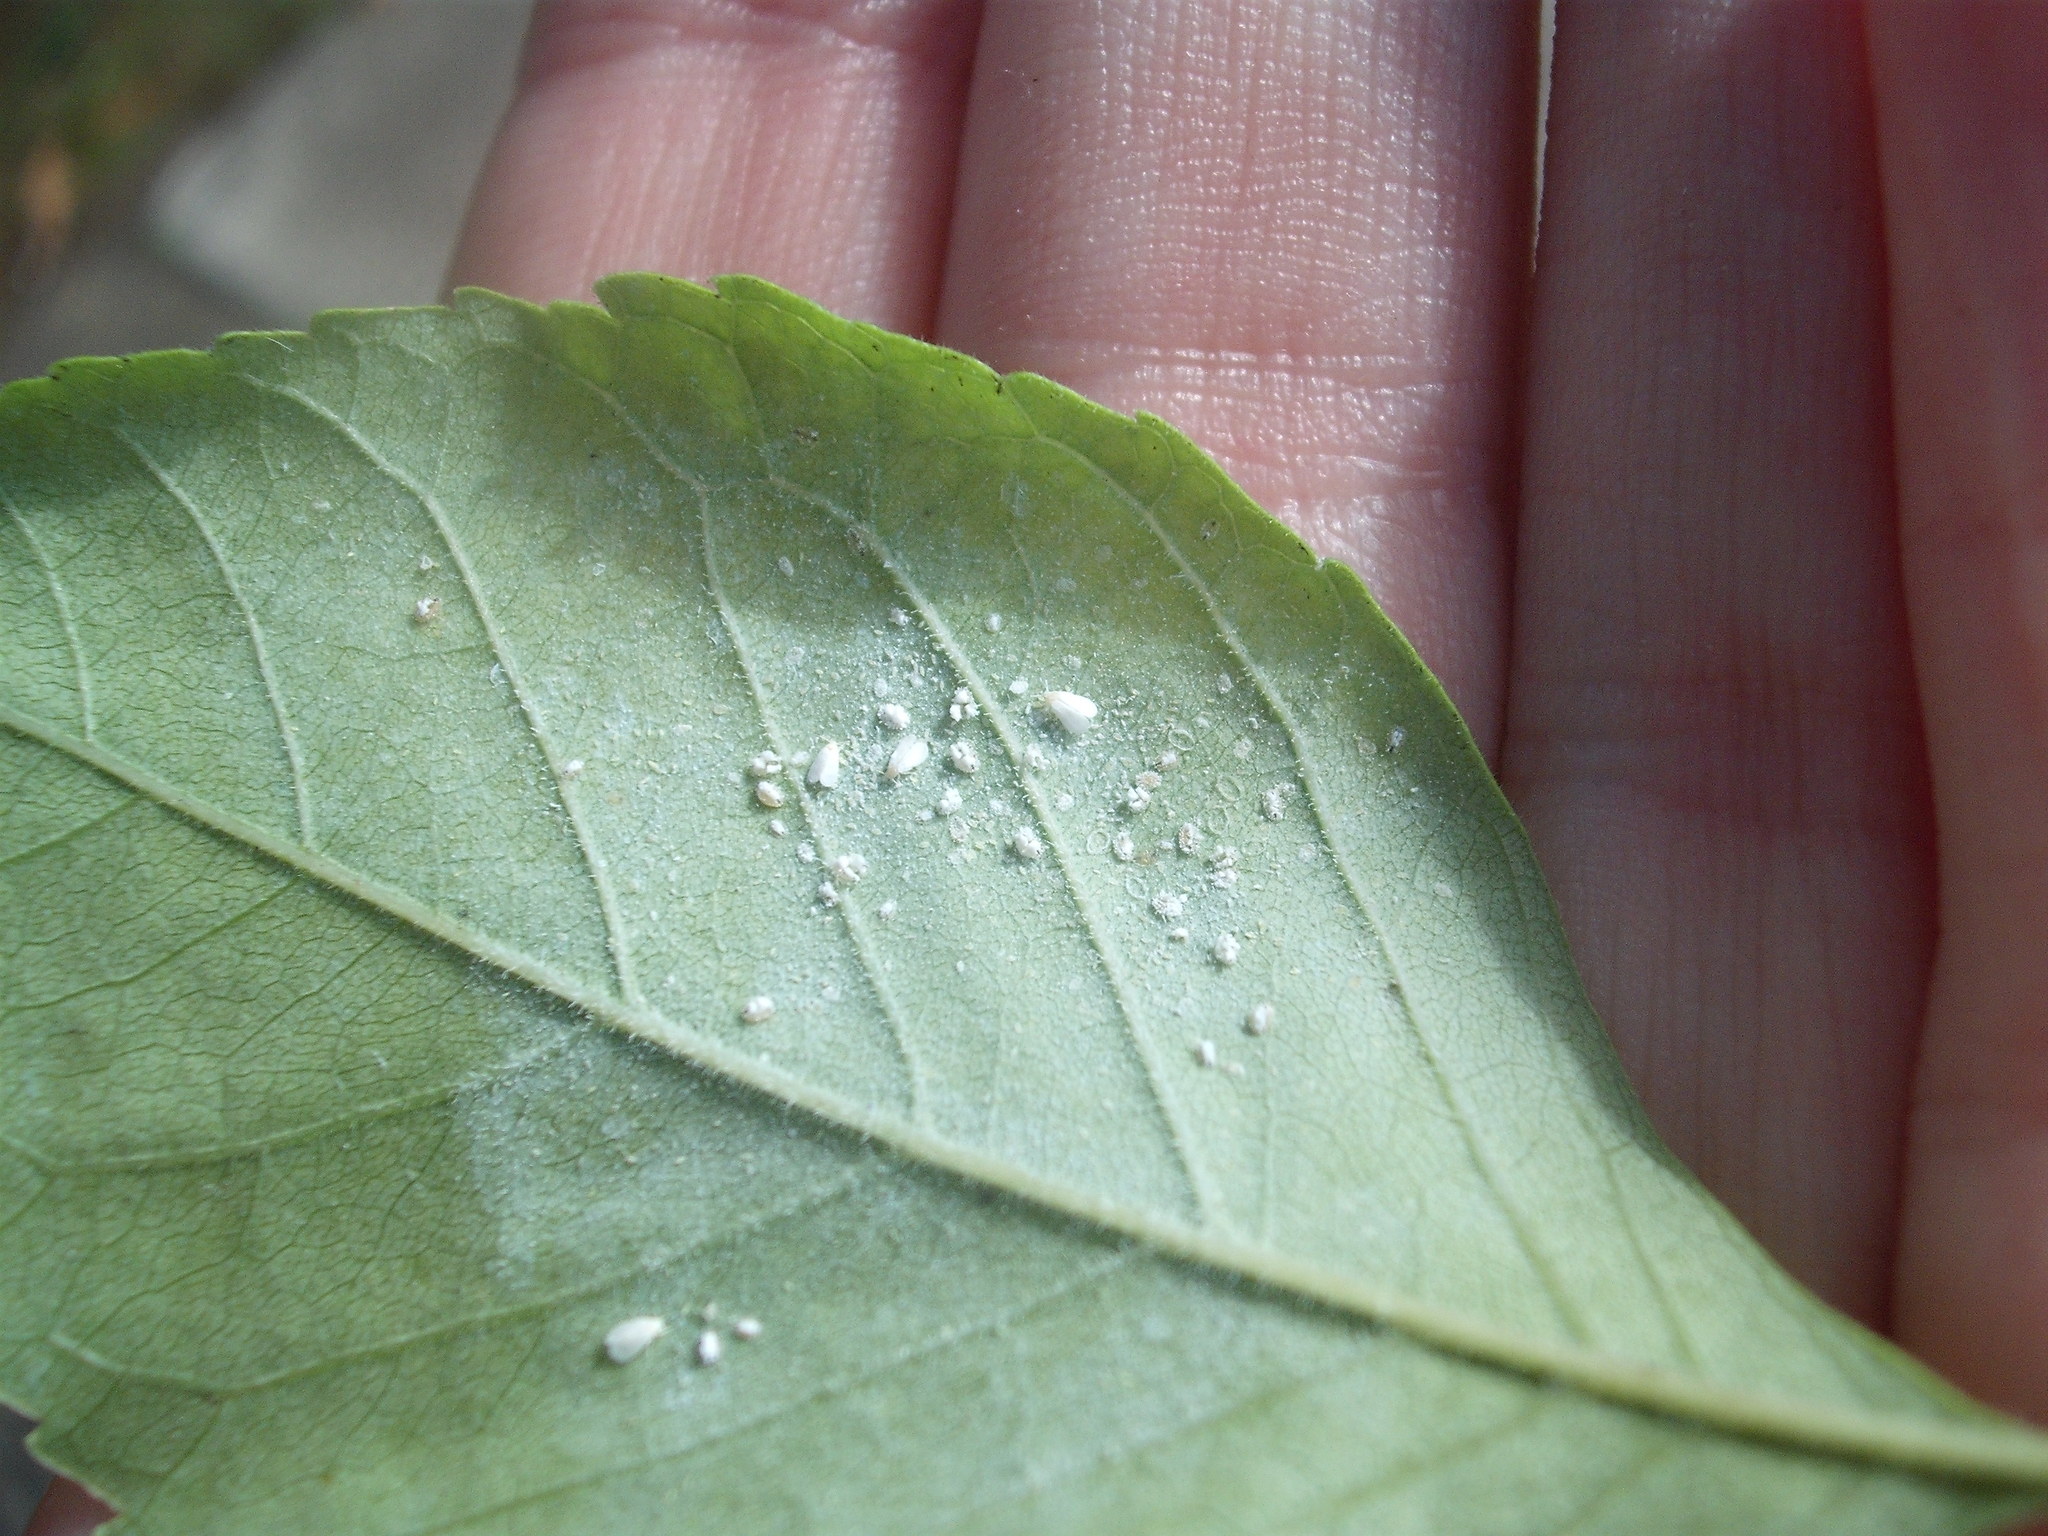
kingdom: Animalia
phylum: Arthropoda
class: Insecta
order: Hemiptera
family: Aleyrodidae
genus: Siphoninus
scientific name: Siphoninus phillyreae
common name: Ash whitefly
